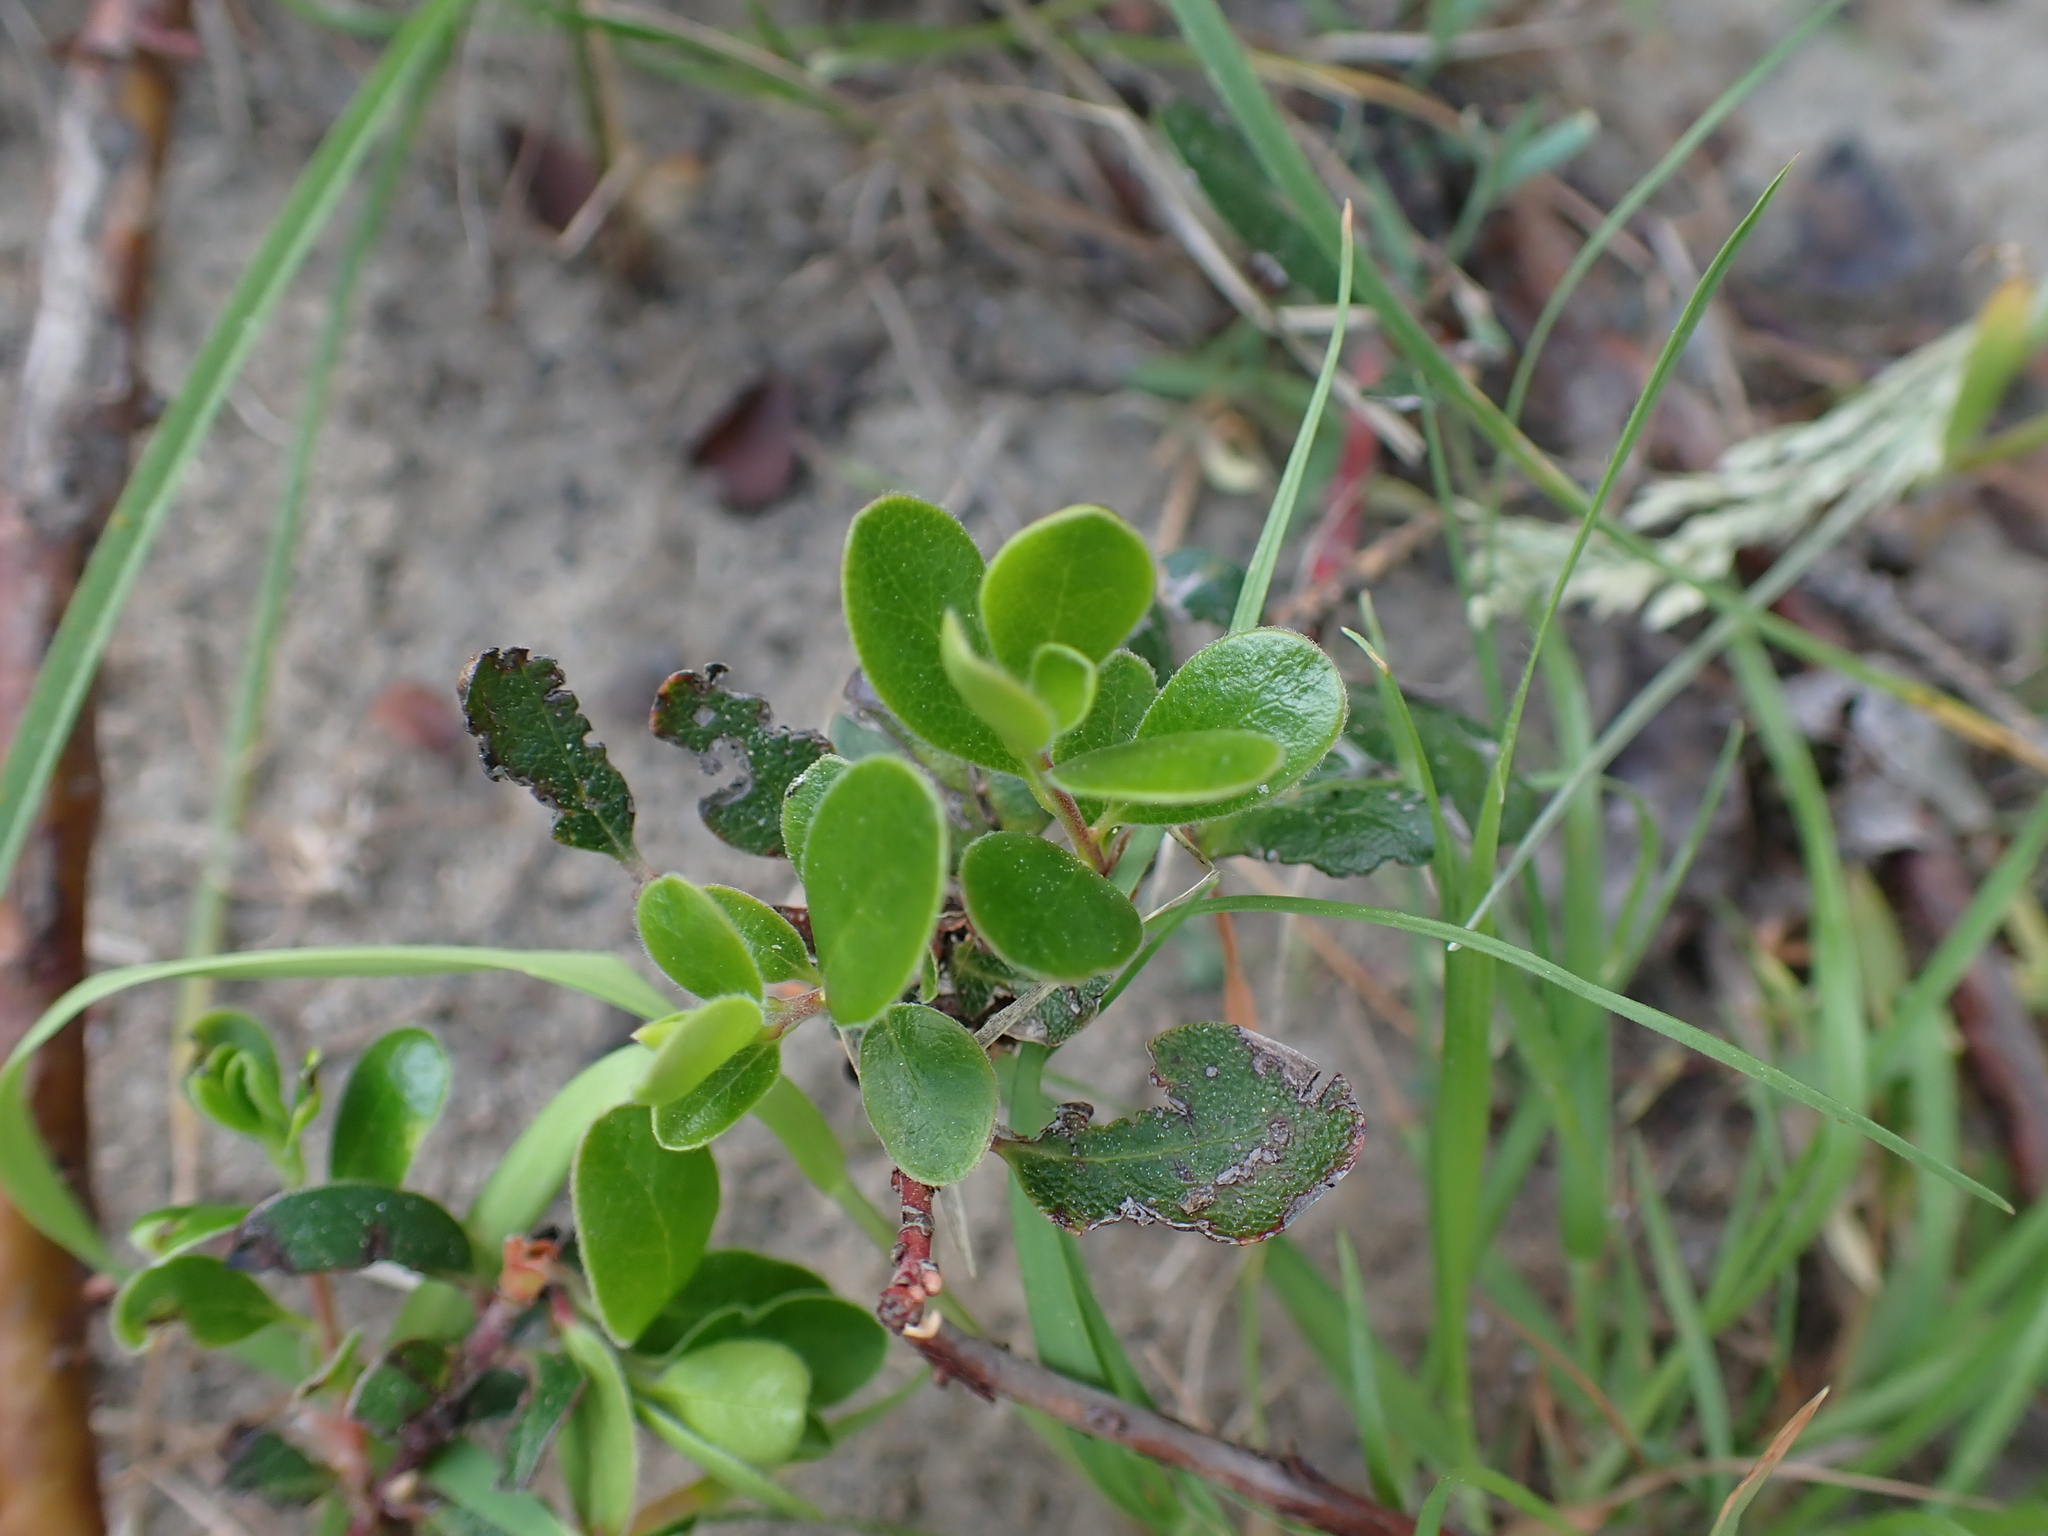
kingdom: Plantae
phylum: Tracheophyta
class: Magnoliopsida
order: Ericales
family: Ericaceae
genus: Arctostaphylos
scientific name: Arctostaphylos uva-ursi
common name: Bearberry
